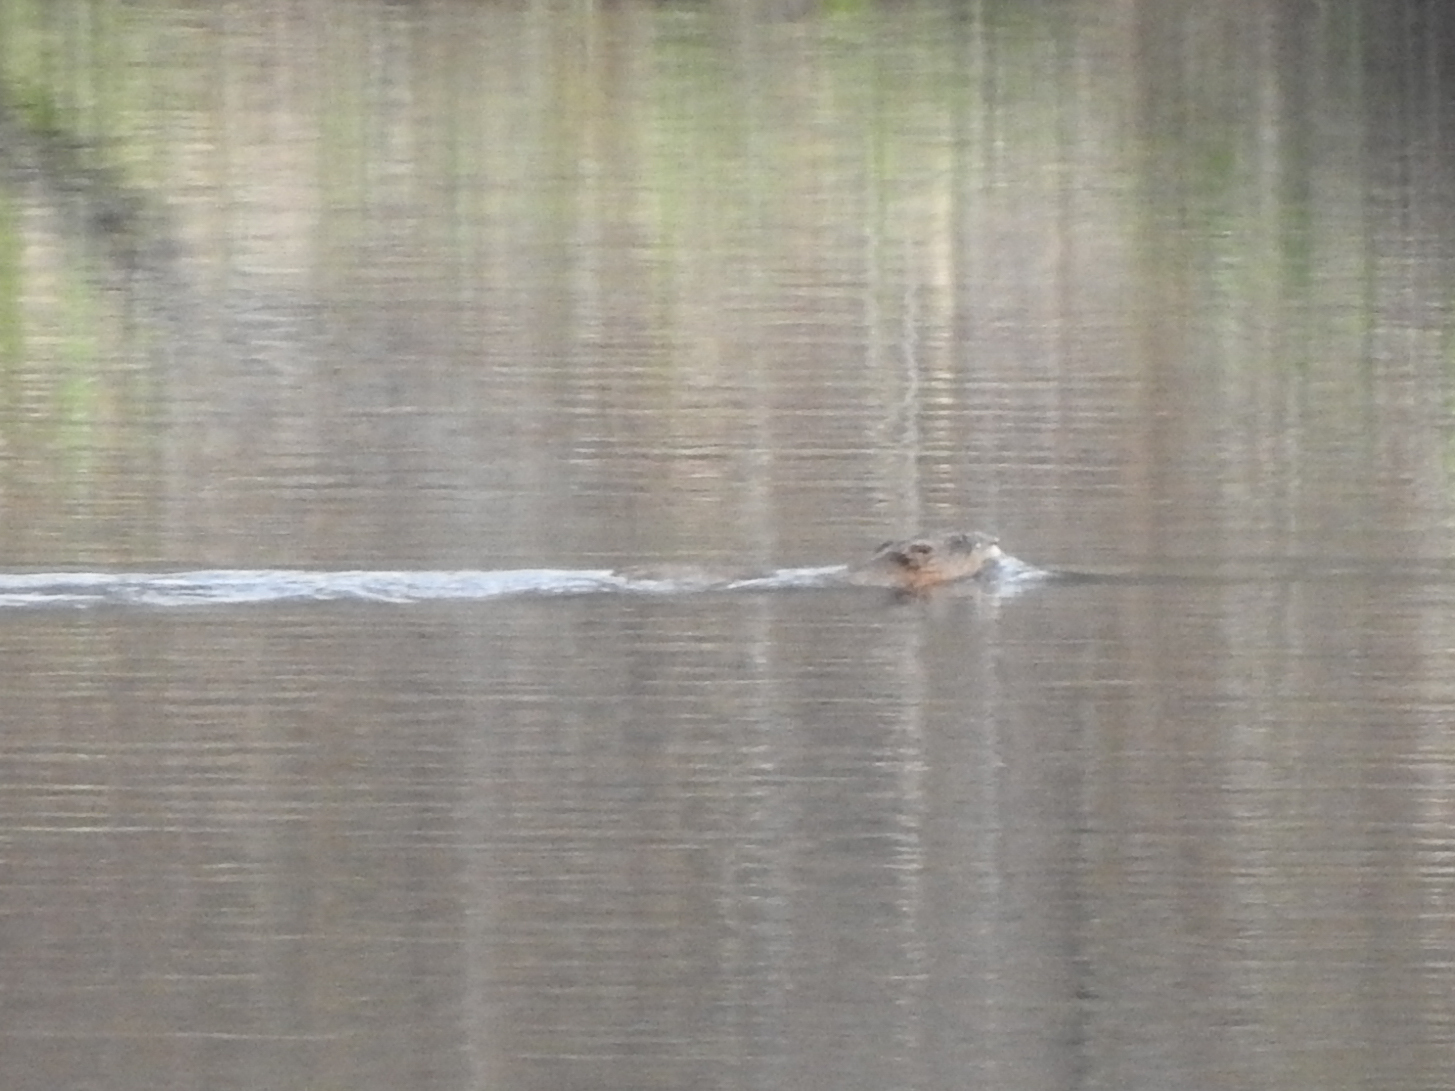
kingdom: Animalia
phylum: Chordata
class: Mammalia
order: Rodentia
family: Cricetidae
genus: Ondatra
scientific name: Ondatra zibethicus
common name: Muskrat
